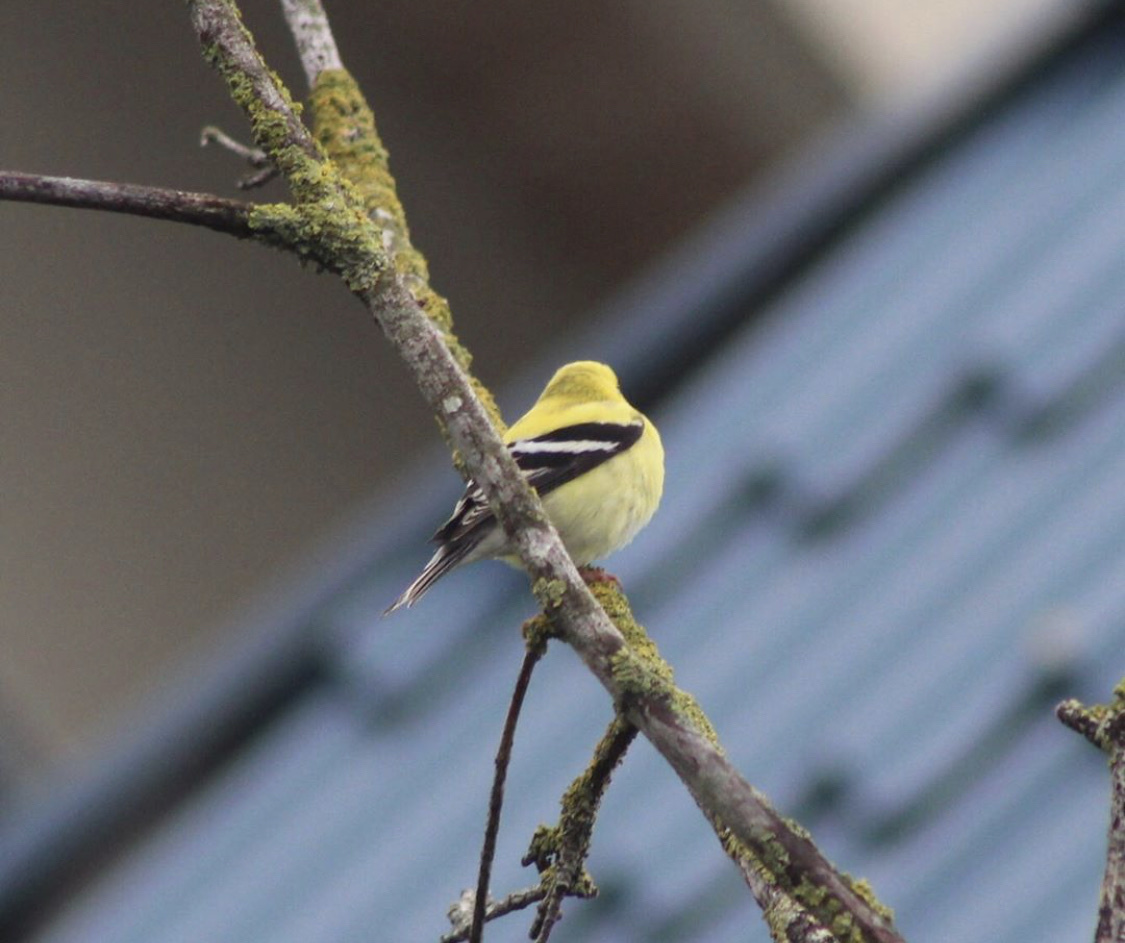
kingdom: Animalia
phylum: Chordata
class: Aves
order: Passeriformes
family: Fringillidae
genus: Spinus
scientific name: Spinus tristis
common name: American goldfinch
